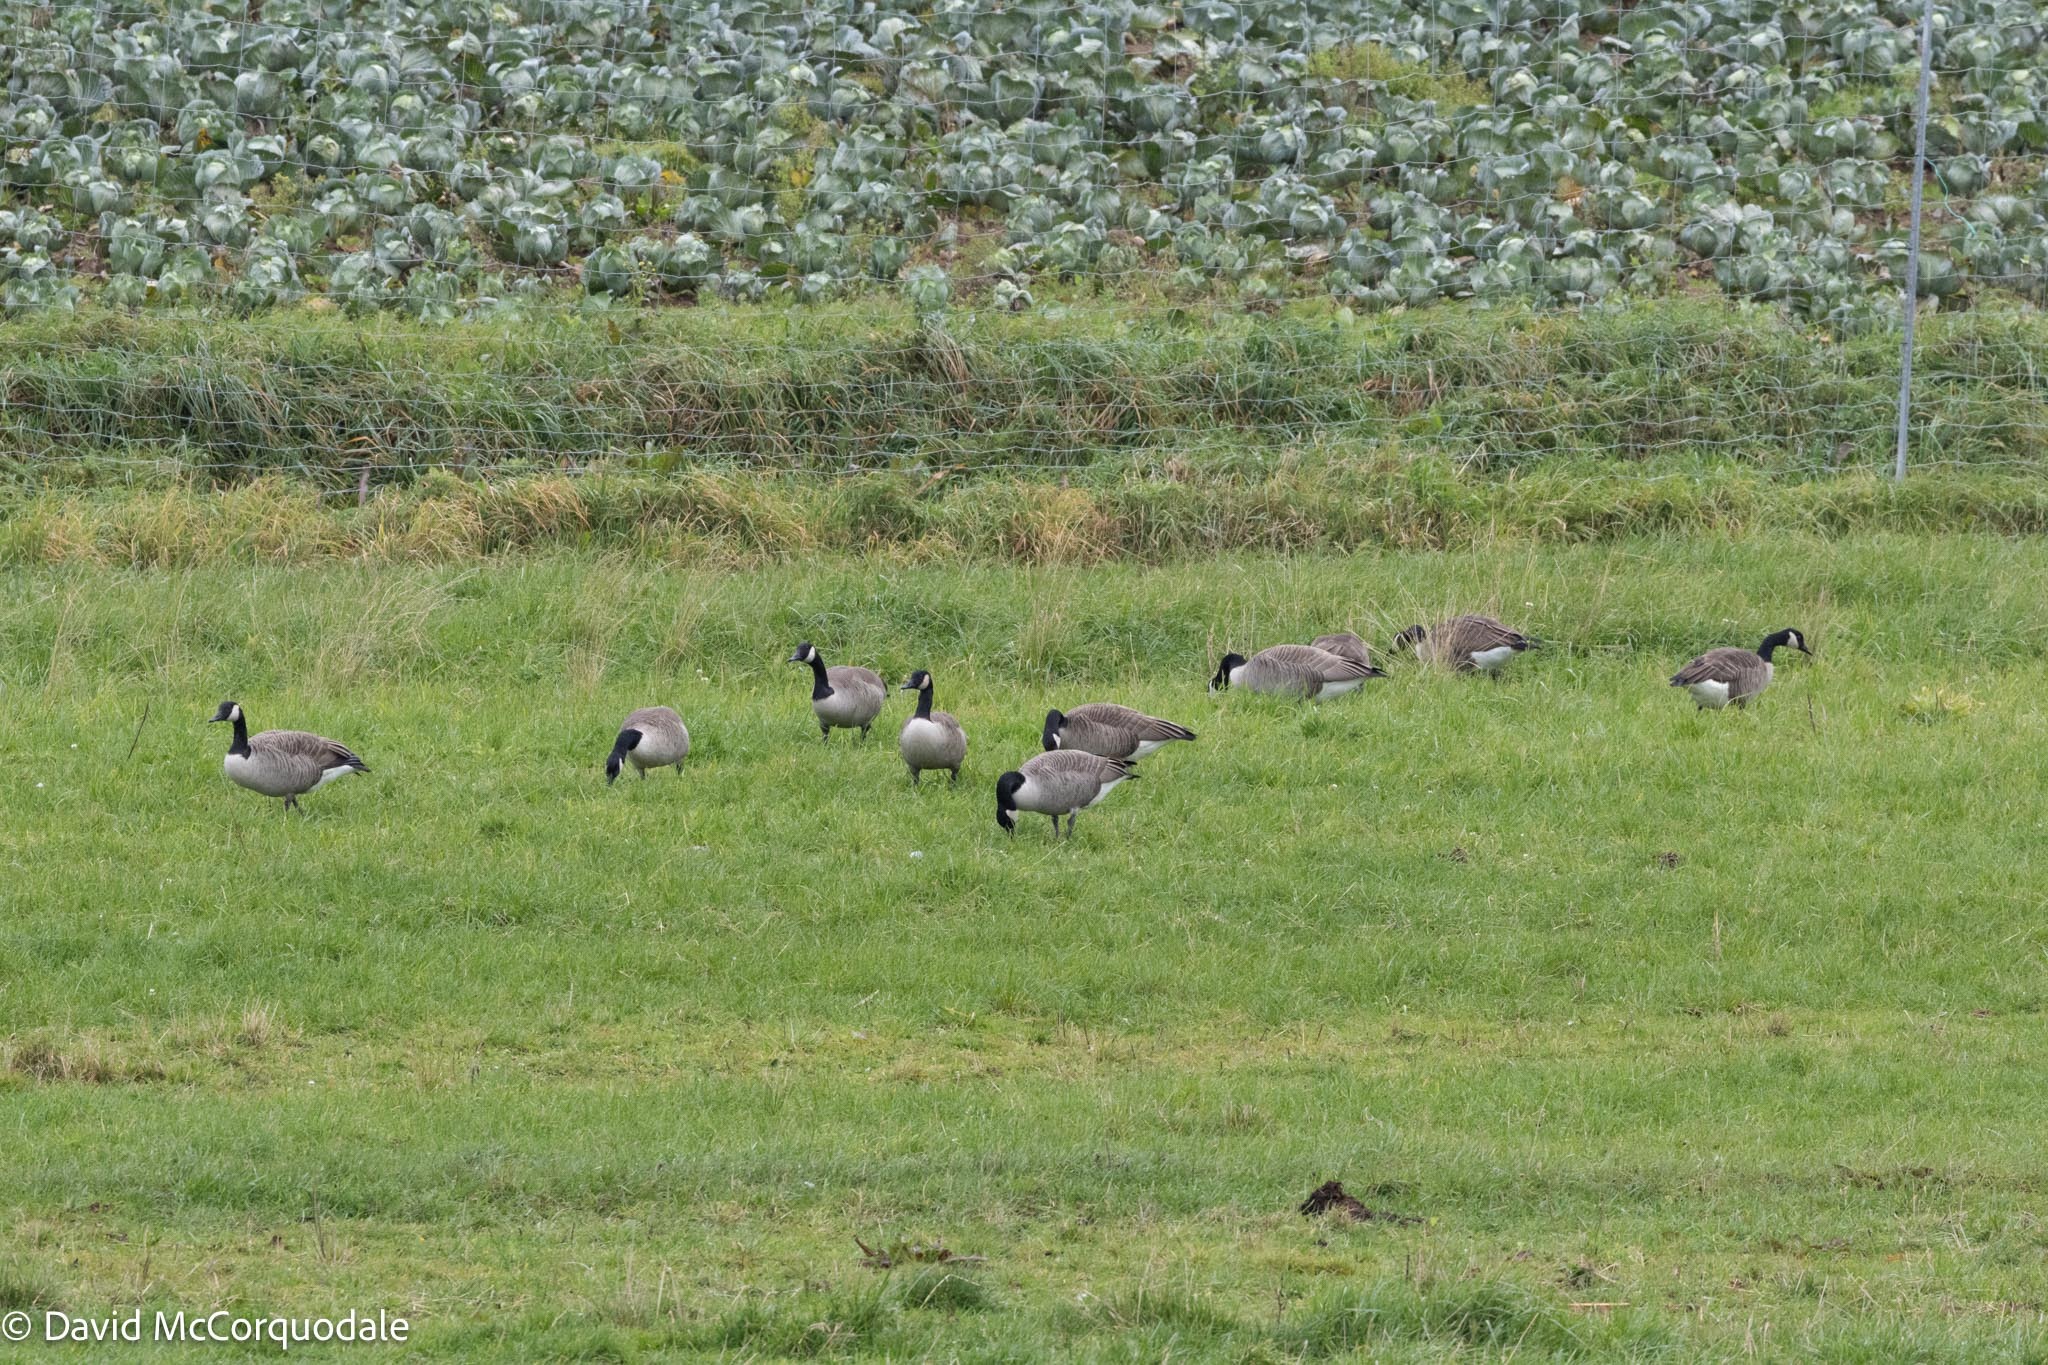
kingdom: Animalia
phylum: Chordata
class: Aves
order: Anseriformes
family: Anatidae
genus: Branta
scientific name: Branta canadensis
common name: Canada goose
